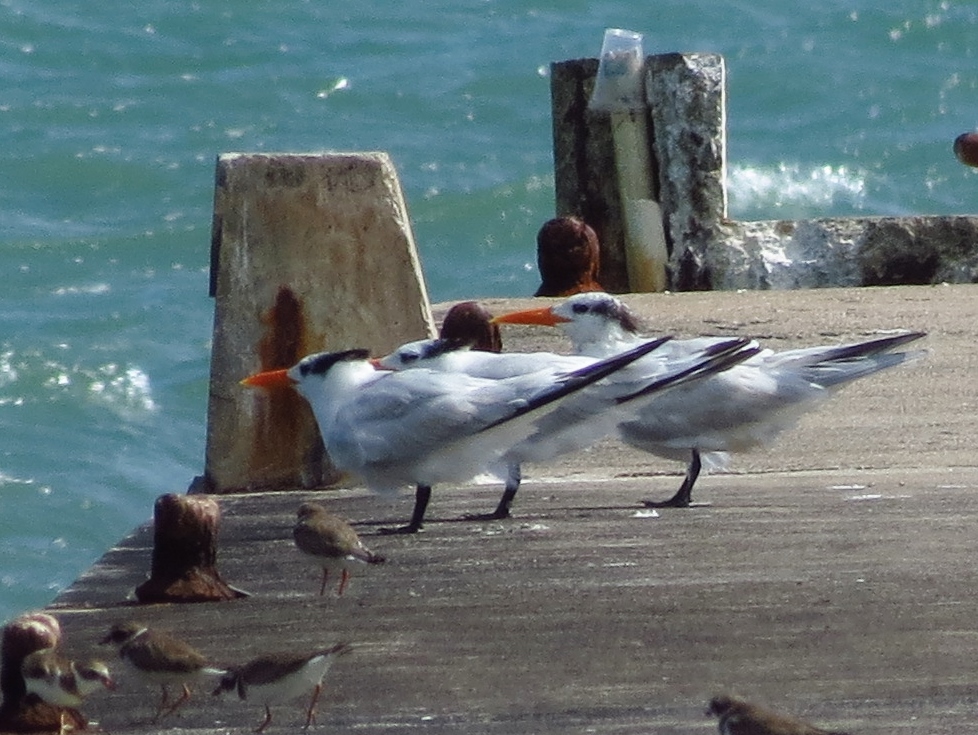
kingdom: Animalia
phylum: Chordata
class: Aves
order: Charadriiformes
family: Laridae
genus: Thalasseus
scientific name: Thalasseus maximus
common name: Royal tern
